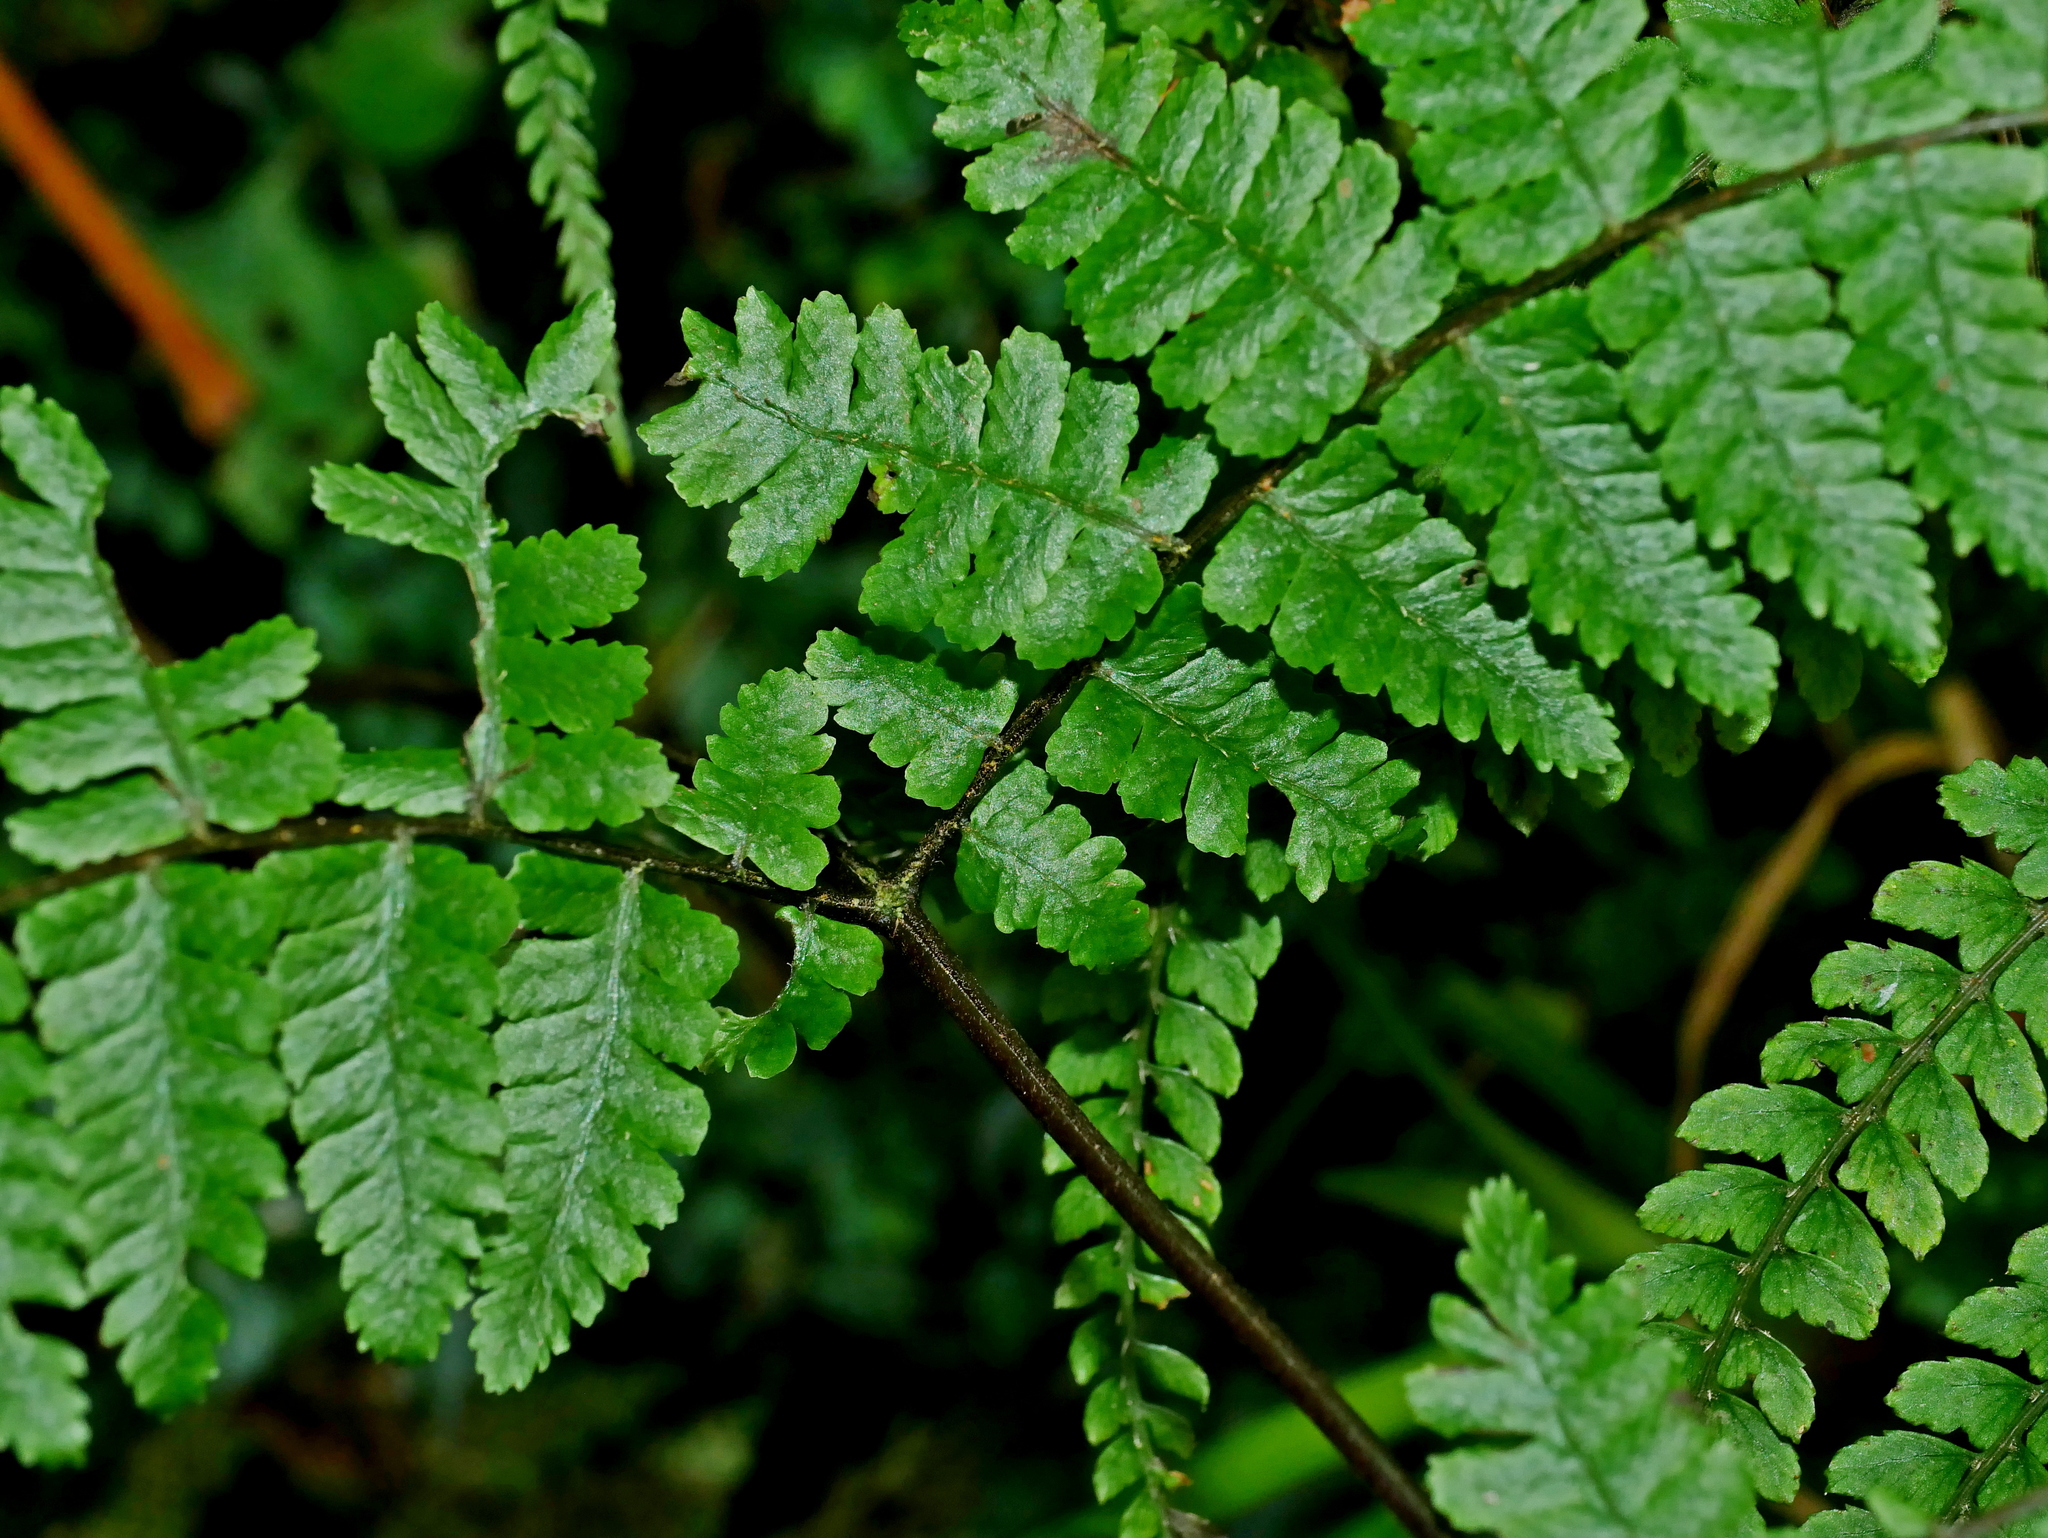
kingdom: Plantae
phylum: Tracheophyta
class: Polypodiopsida
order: Polypodiales
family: Athyriaceae
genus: Cornopteris
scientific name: Cornopteris banajaoensis
